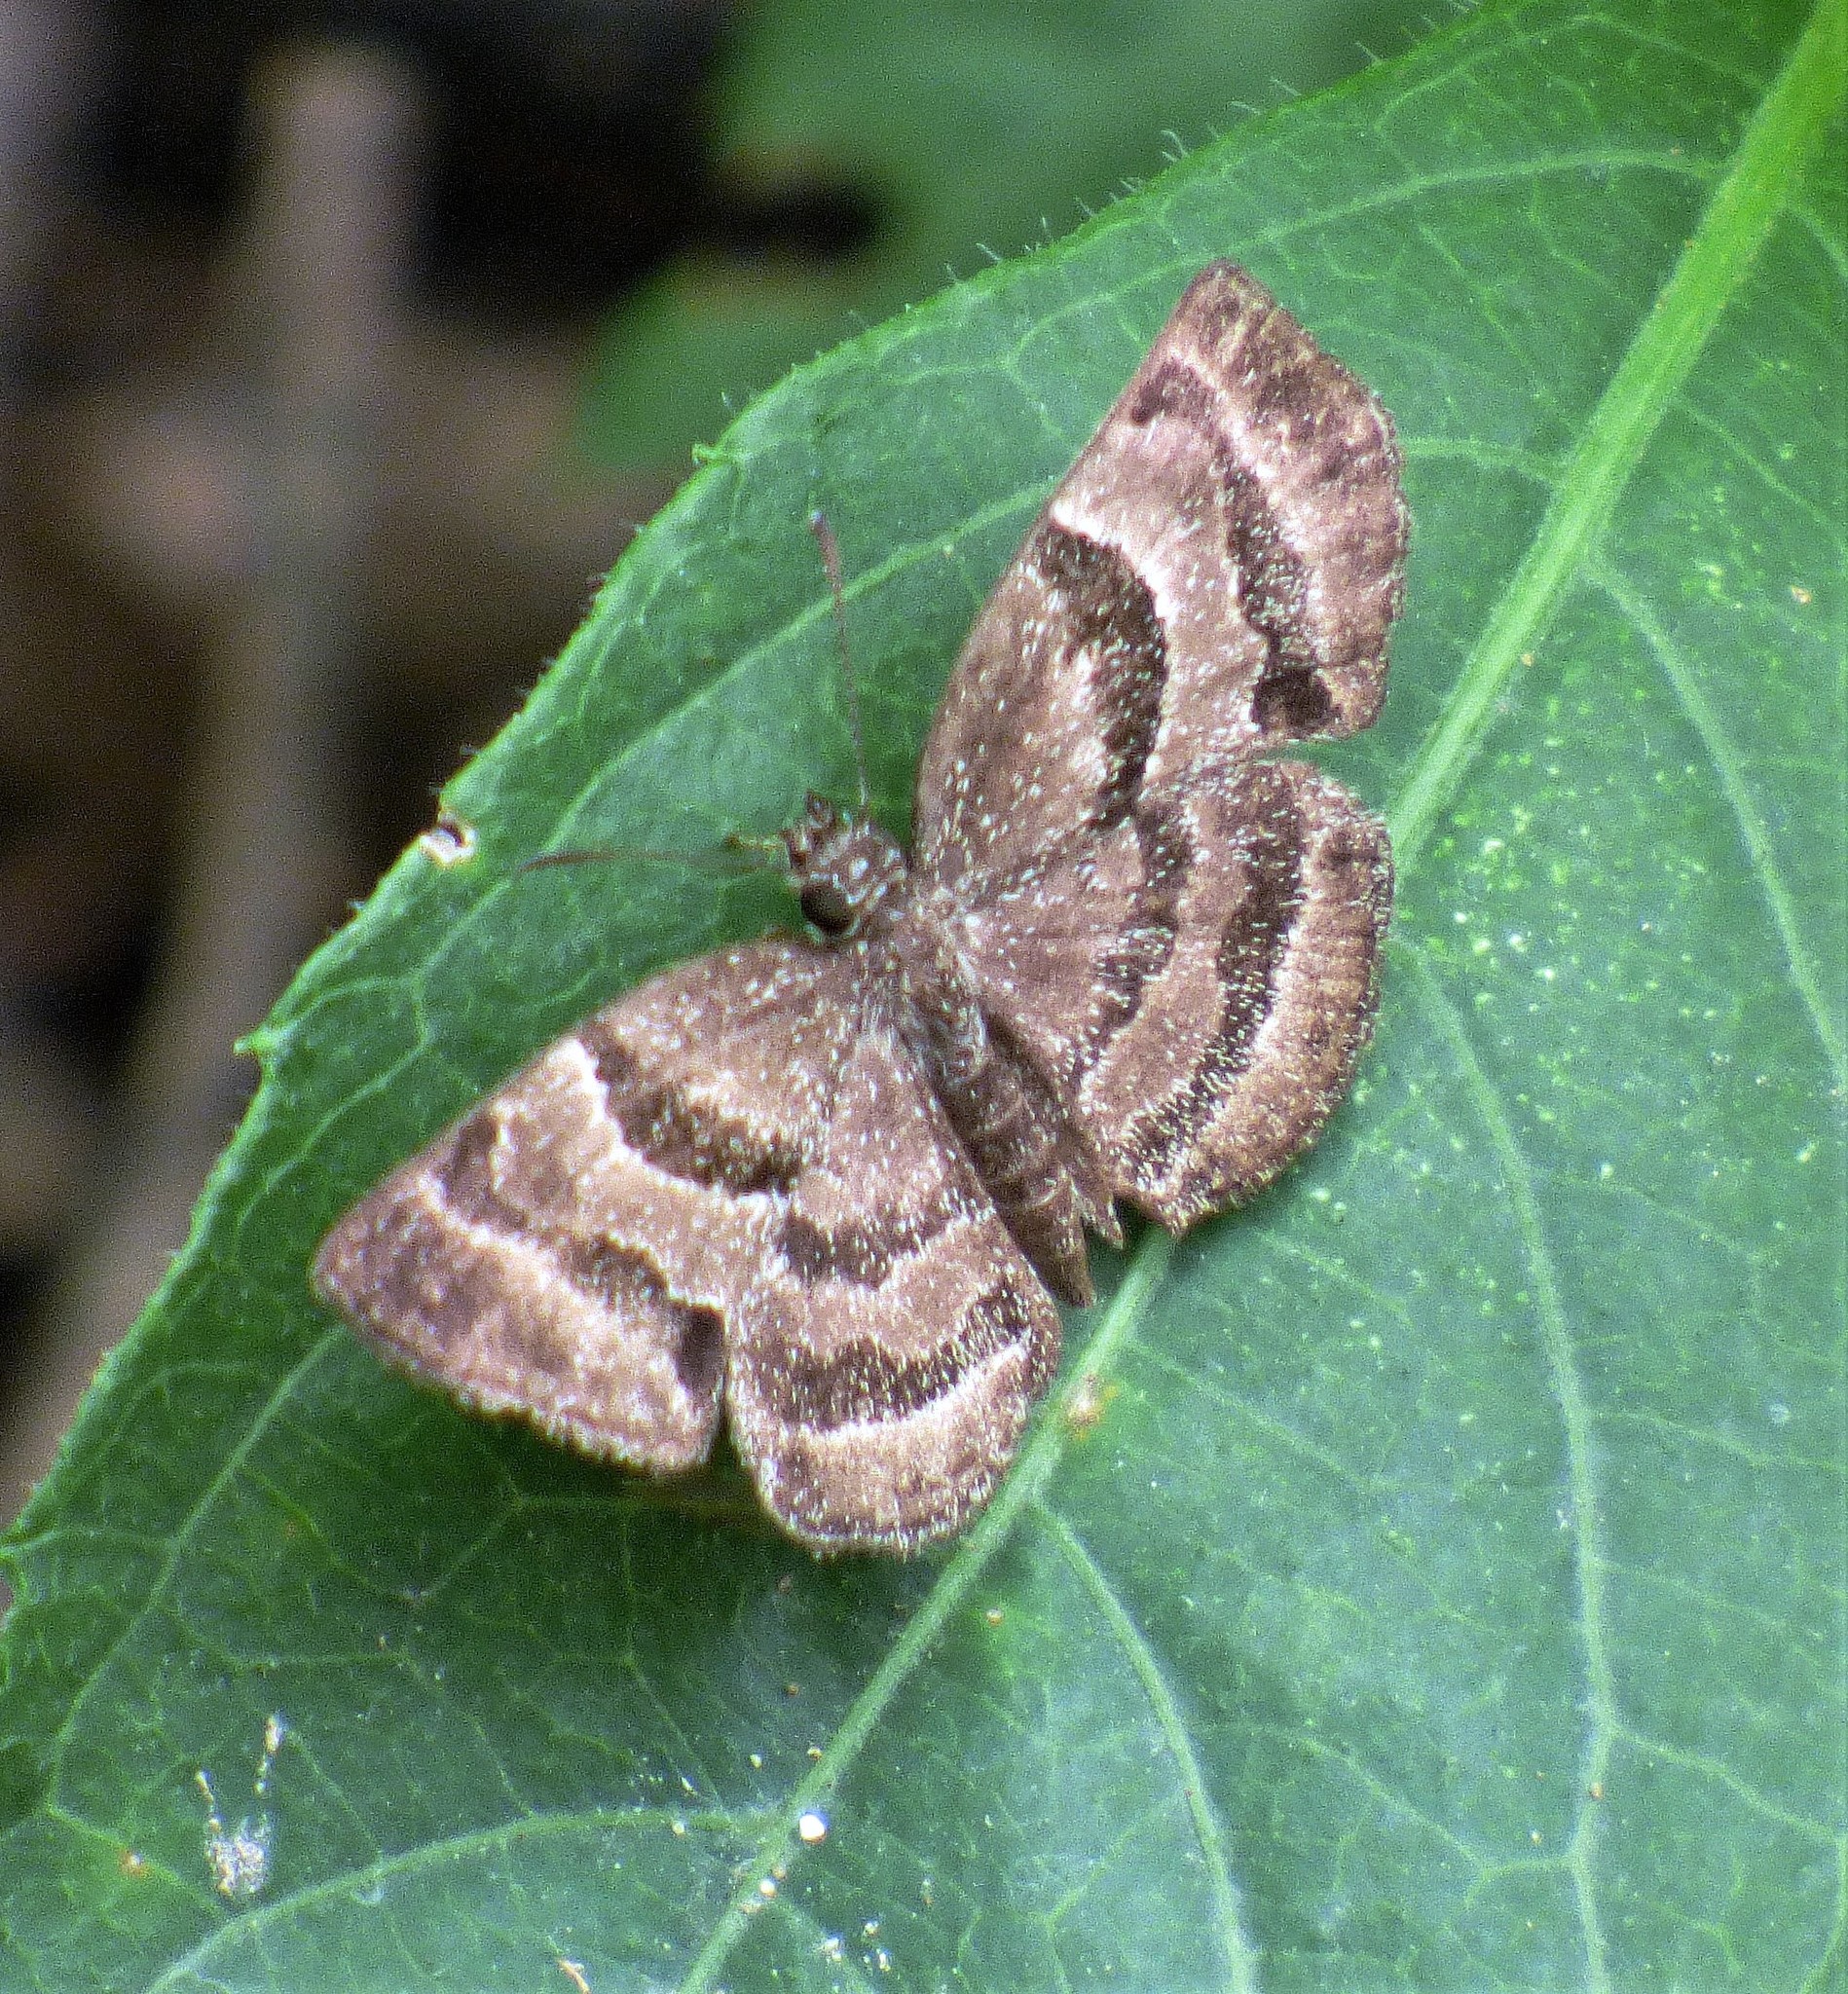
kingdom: Animalia
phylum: Arthropoda
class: Insecta
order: Lepidoptera
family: Hesperiidae
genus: Trina
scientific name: Trina geometrina
